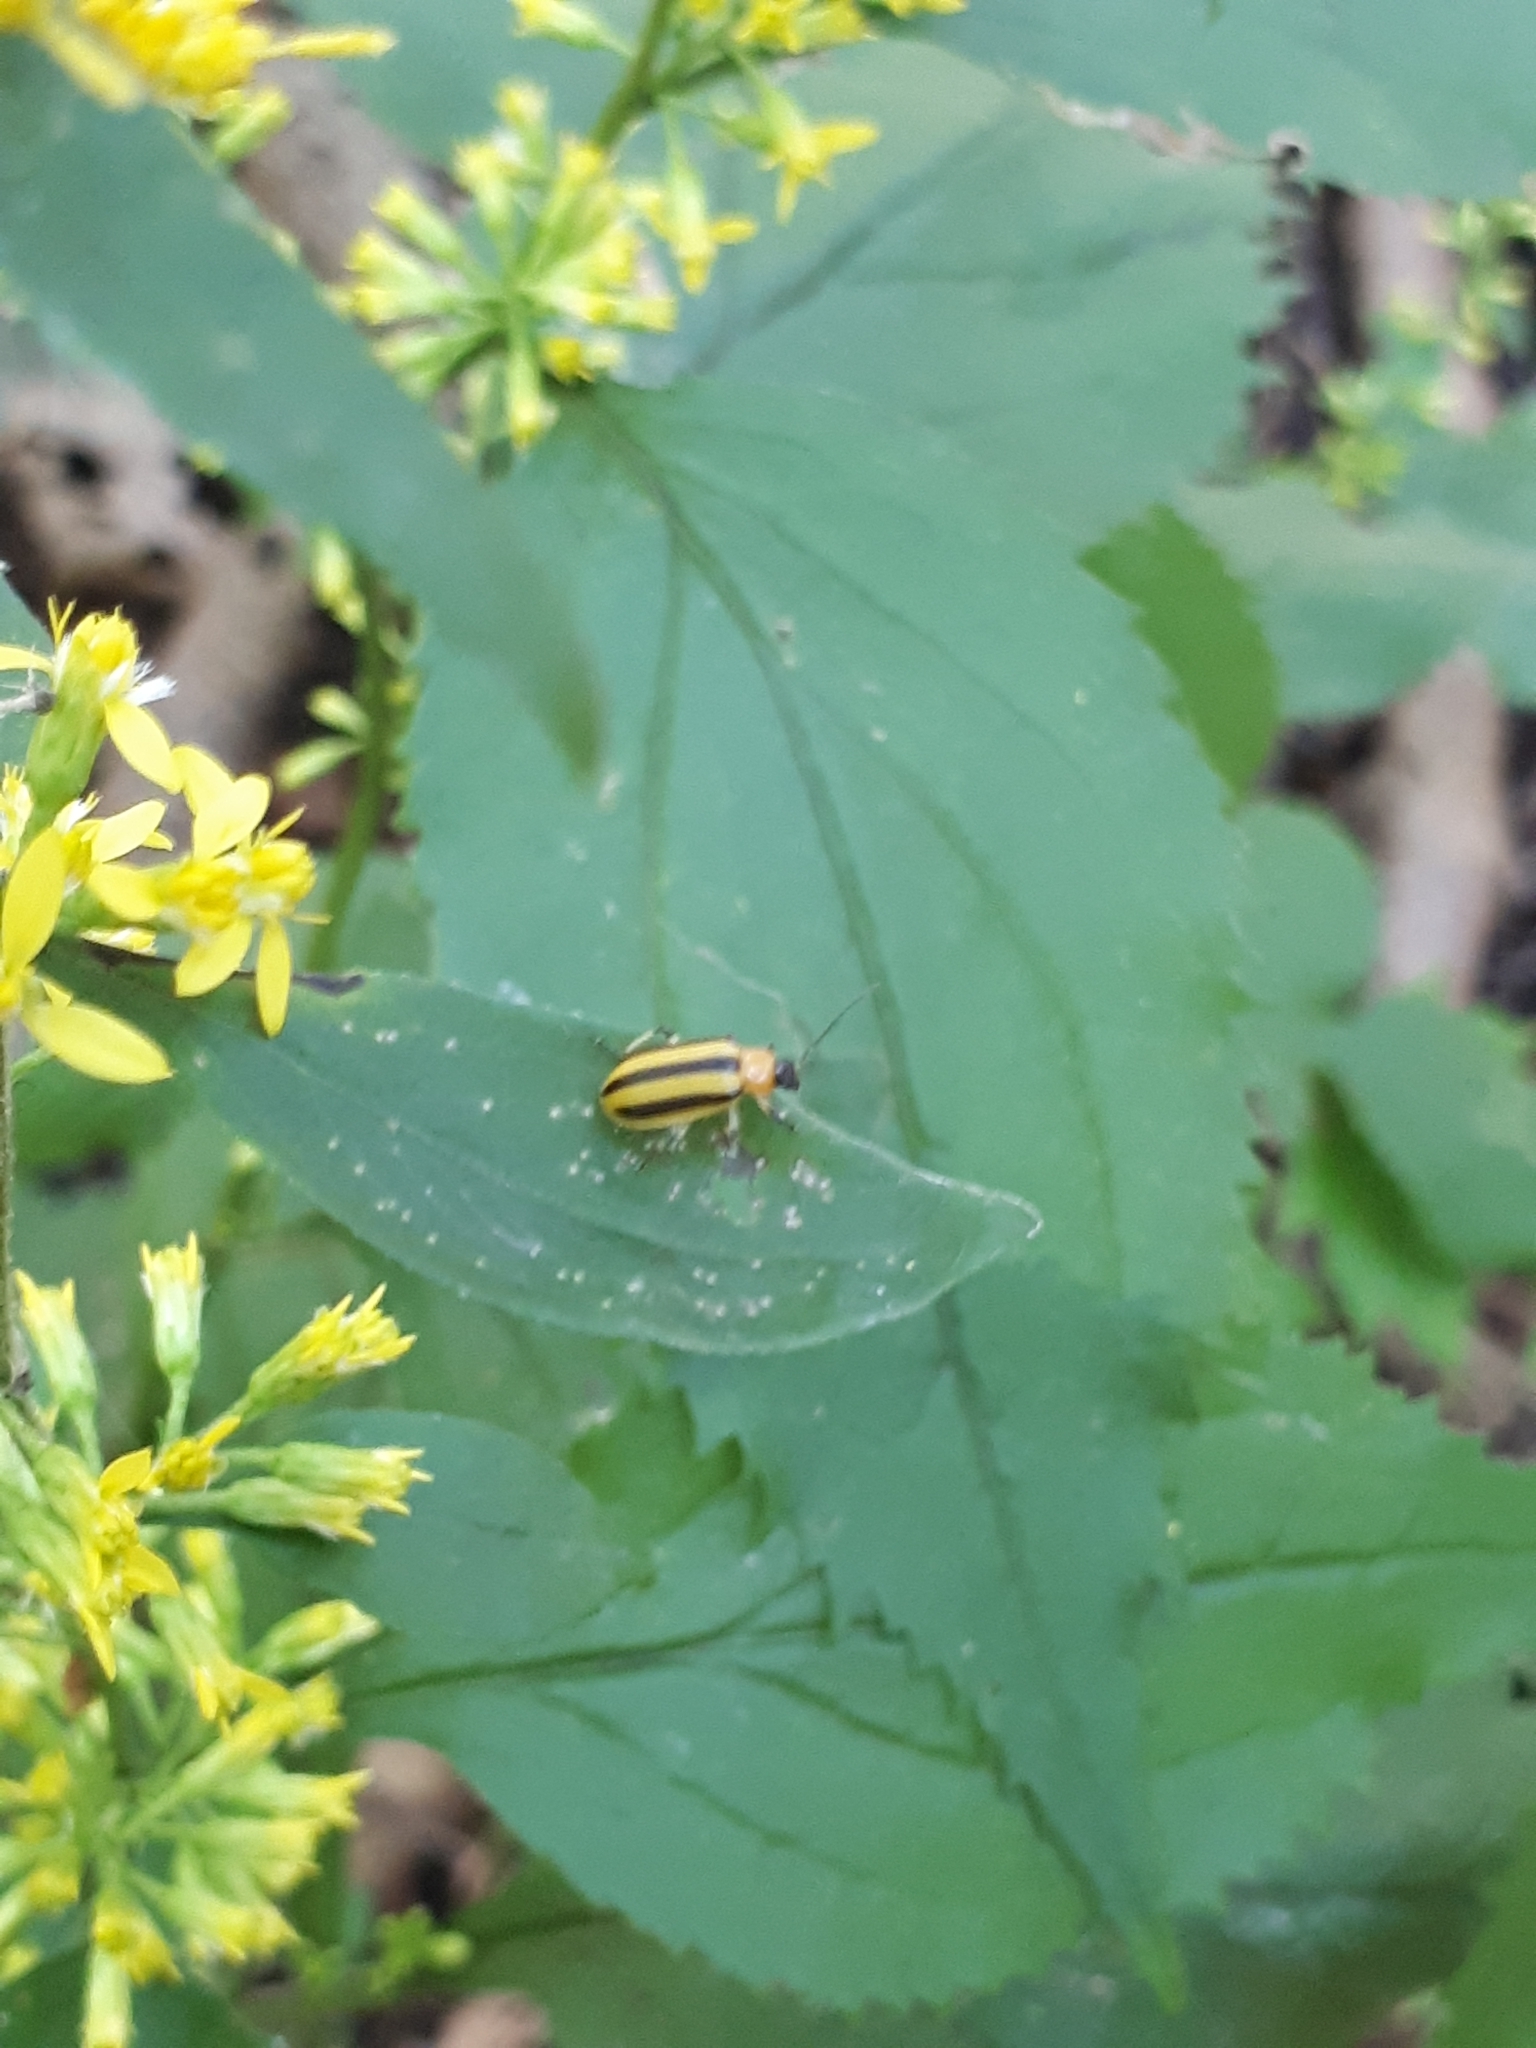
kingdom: Animalia
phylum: Arthropoda
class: Insecta
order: Coleoptera
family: Chrysomelidae
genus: Acalymma
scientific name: Acalymma vittatum
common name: Striped cucumber beetle
